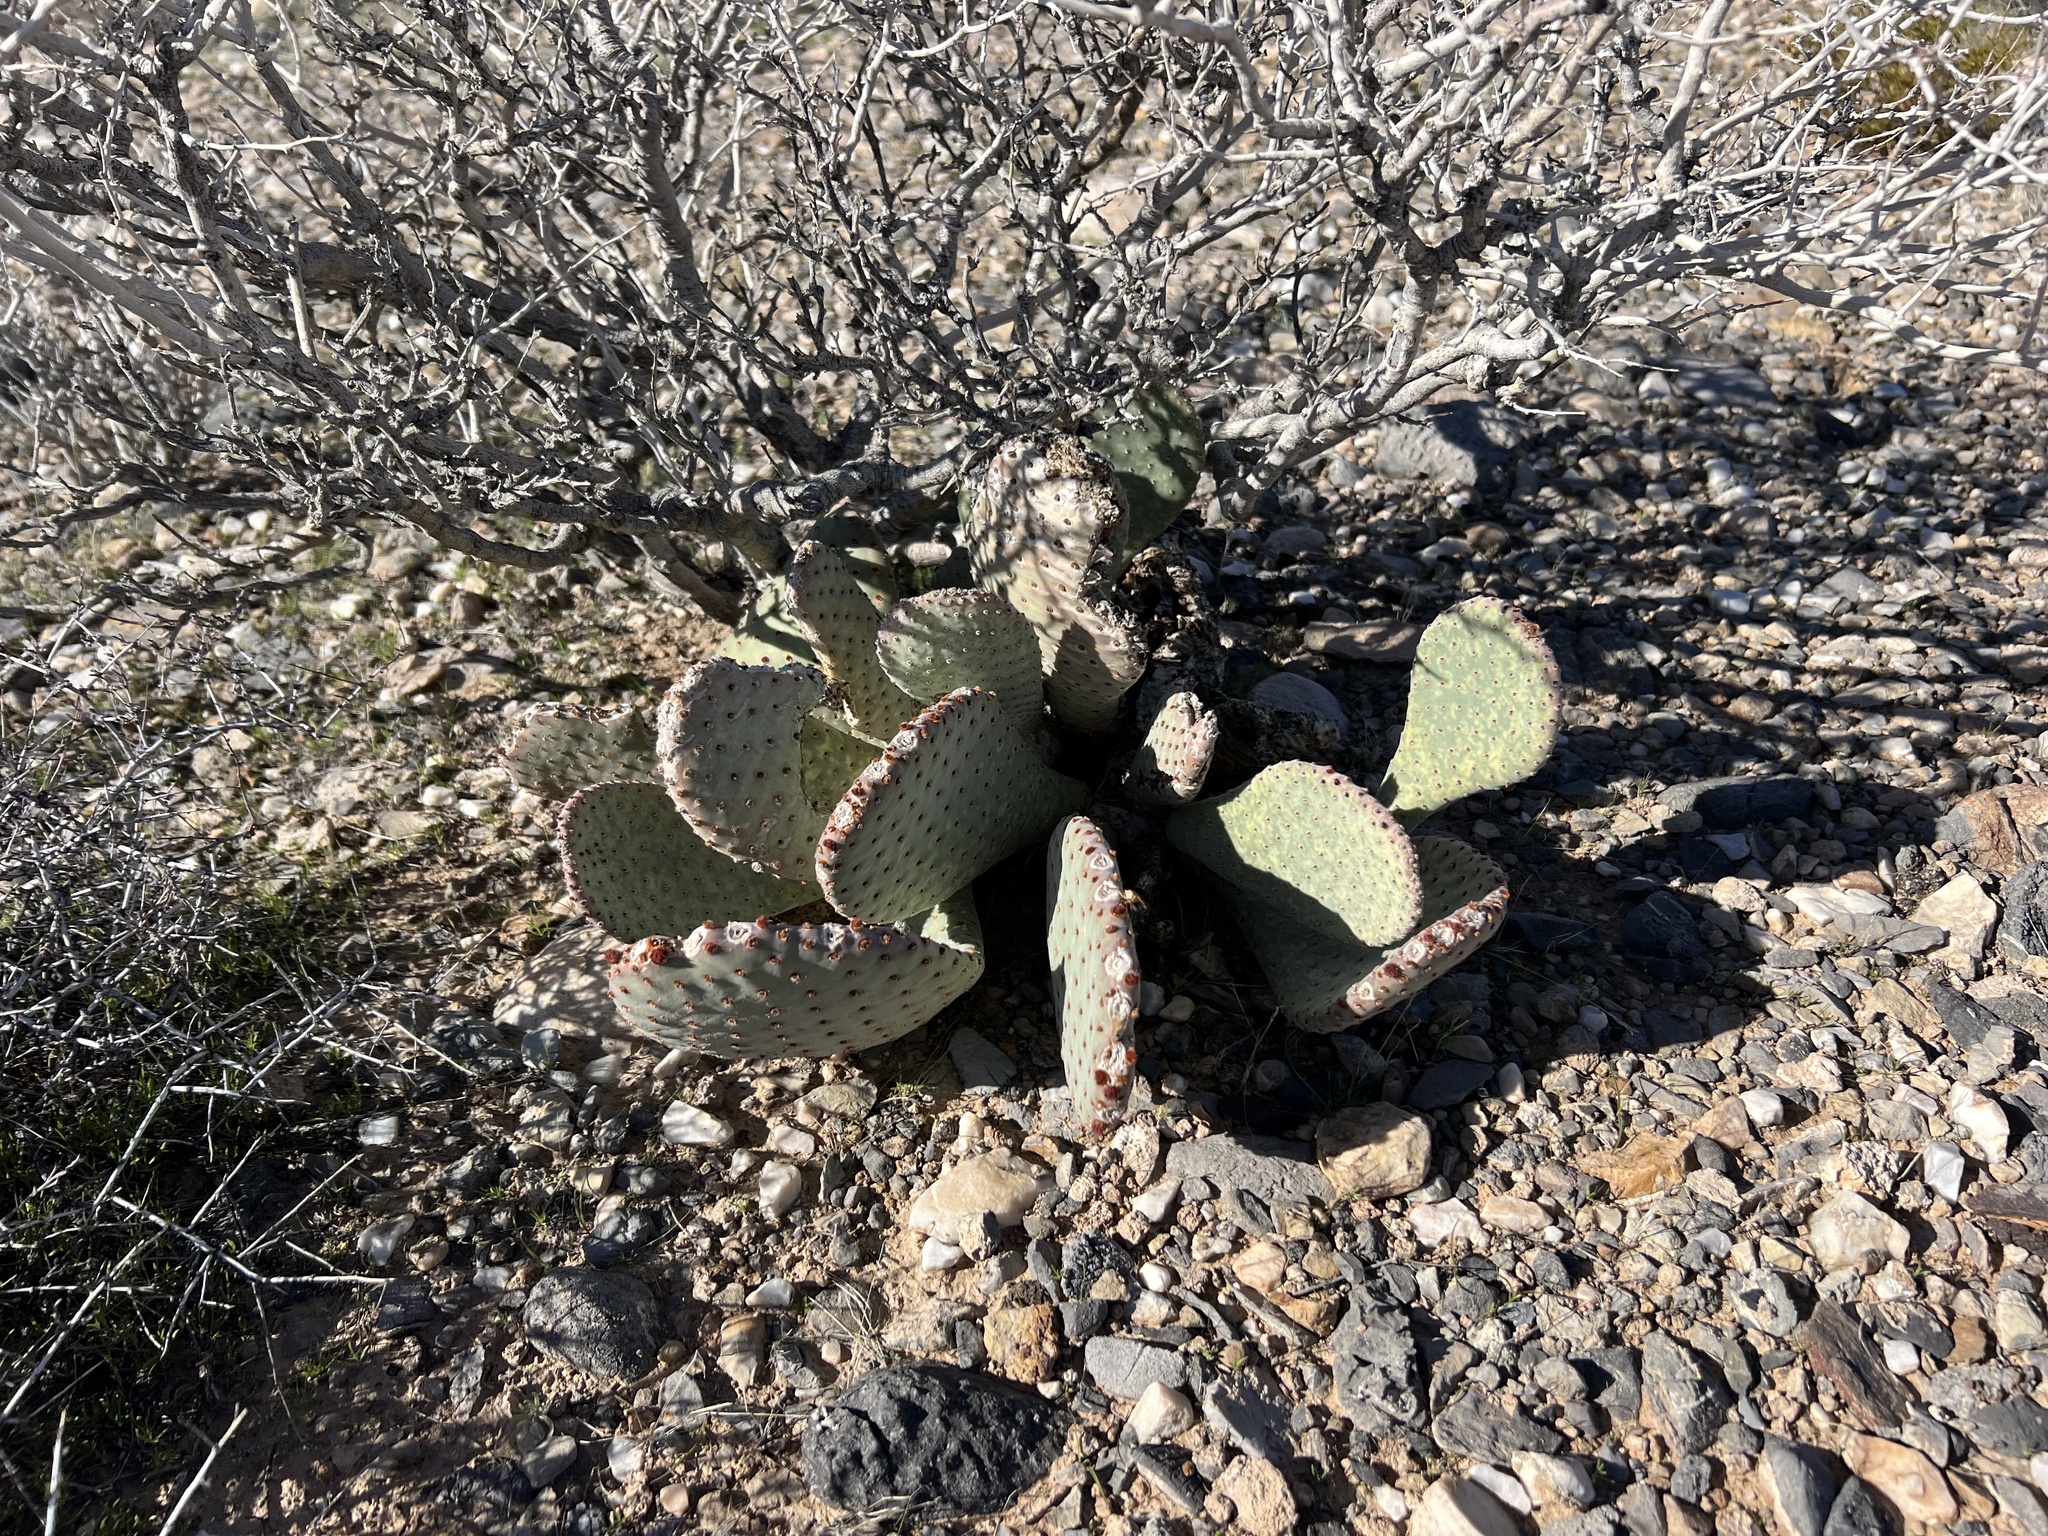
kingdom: Plantae
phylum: Tracheophyta
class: Magnoliopsida
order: Caryophyllales
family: Cactaceae
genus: Opuntia
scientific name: Opuntia basilaris
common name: Beavertail prickly-pear
